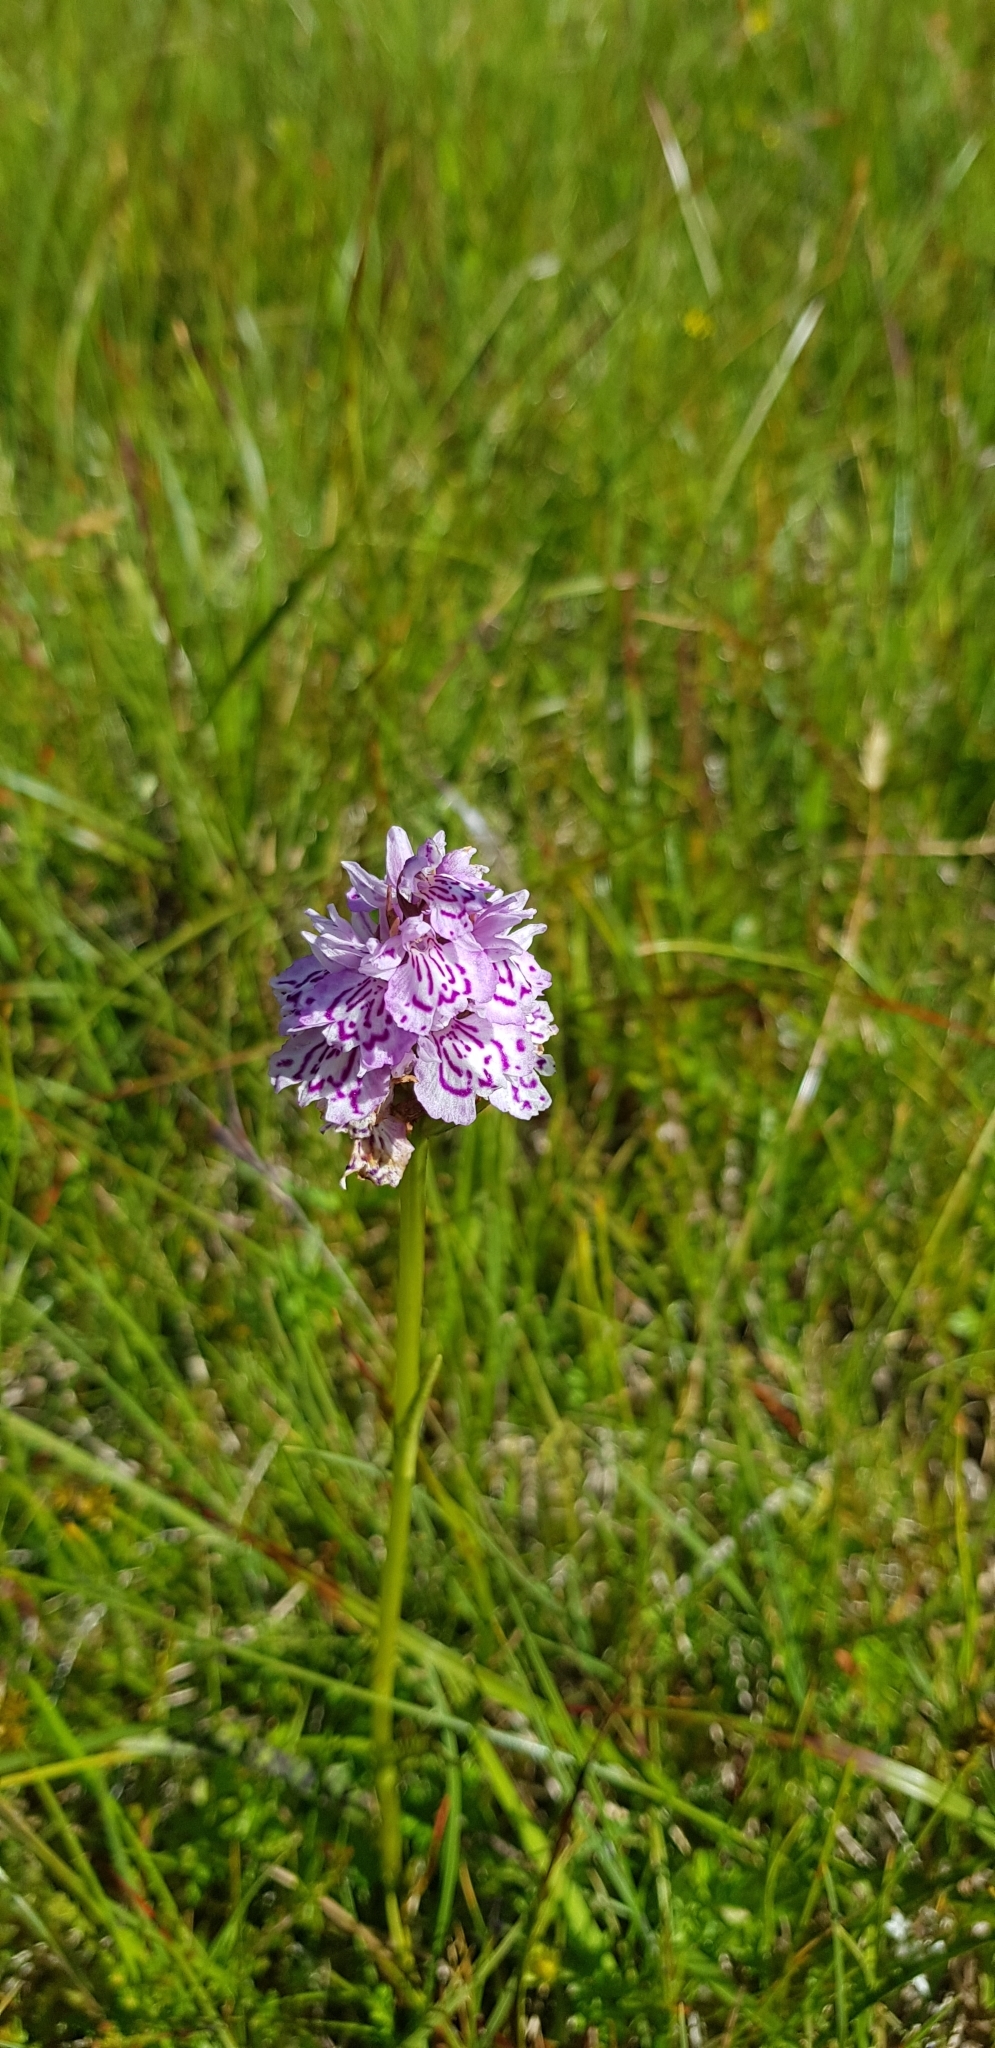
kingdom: Plantae
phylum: Tracheophyta
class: Liliopsida
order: Asparagales
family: Orchidaceae
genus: Dactylorhiza
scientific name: Dactylorhiza maculata
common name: Heath spotted-orchid
